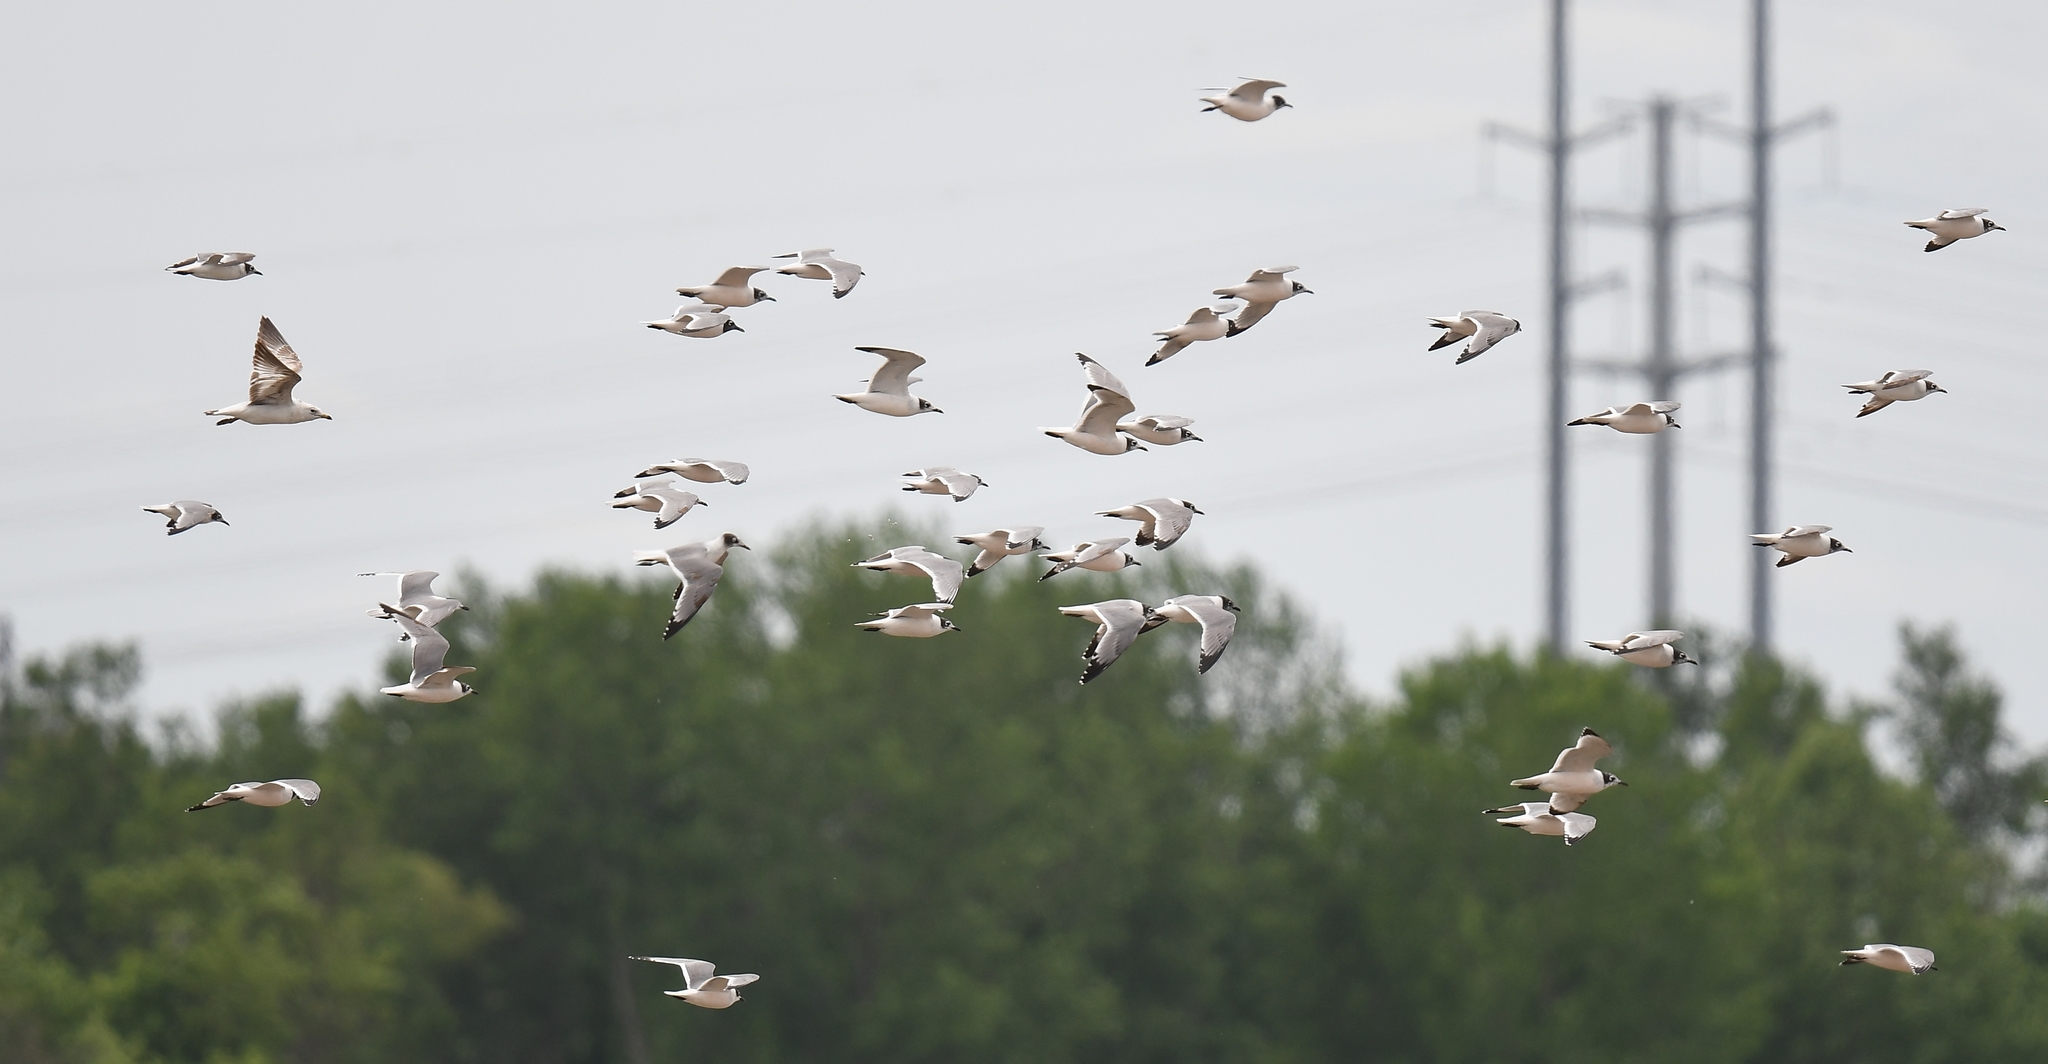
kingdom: Animalia
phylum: Chordata
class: Aves
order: Charadriiformes
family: Laridae
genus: Leucophaeus
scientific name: Leucophaeus pipixcan
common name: Franklin's gull
